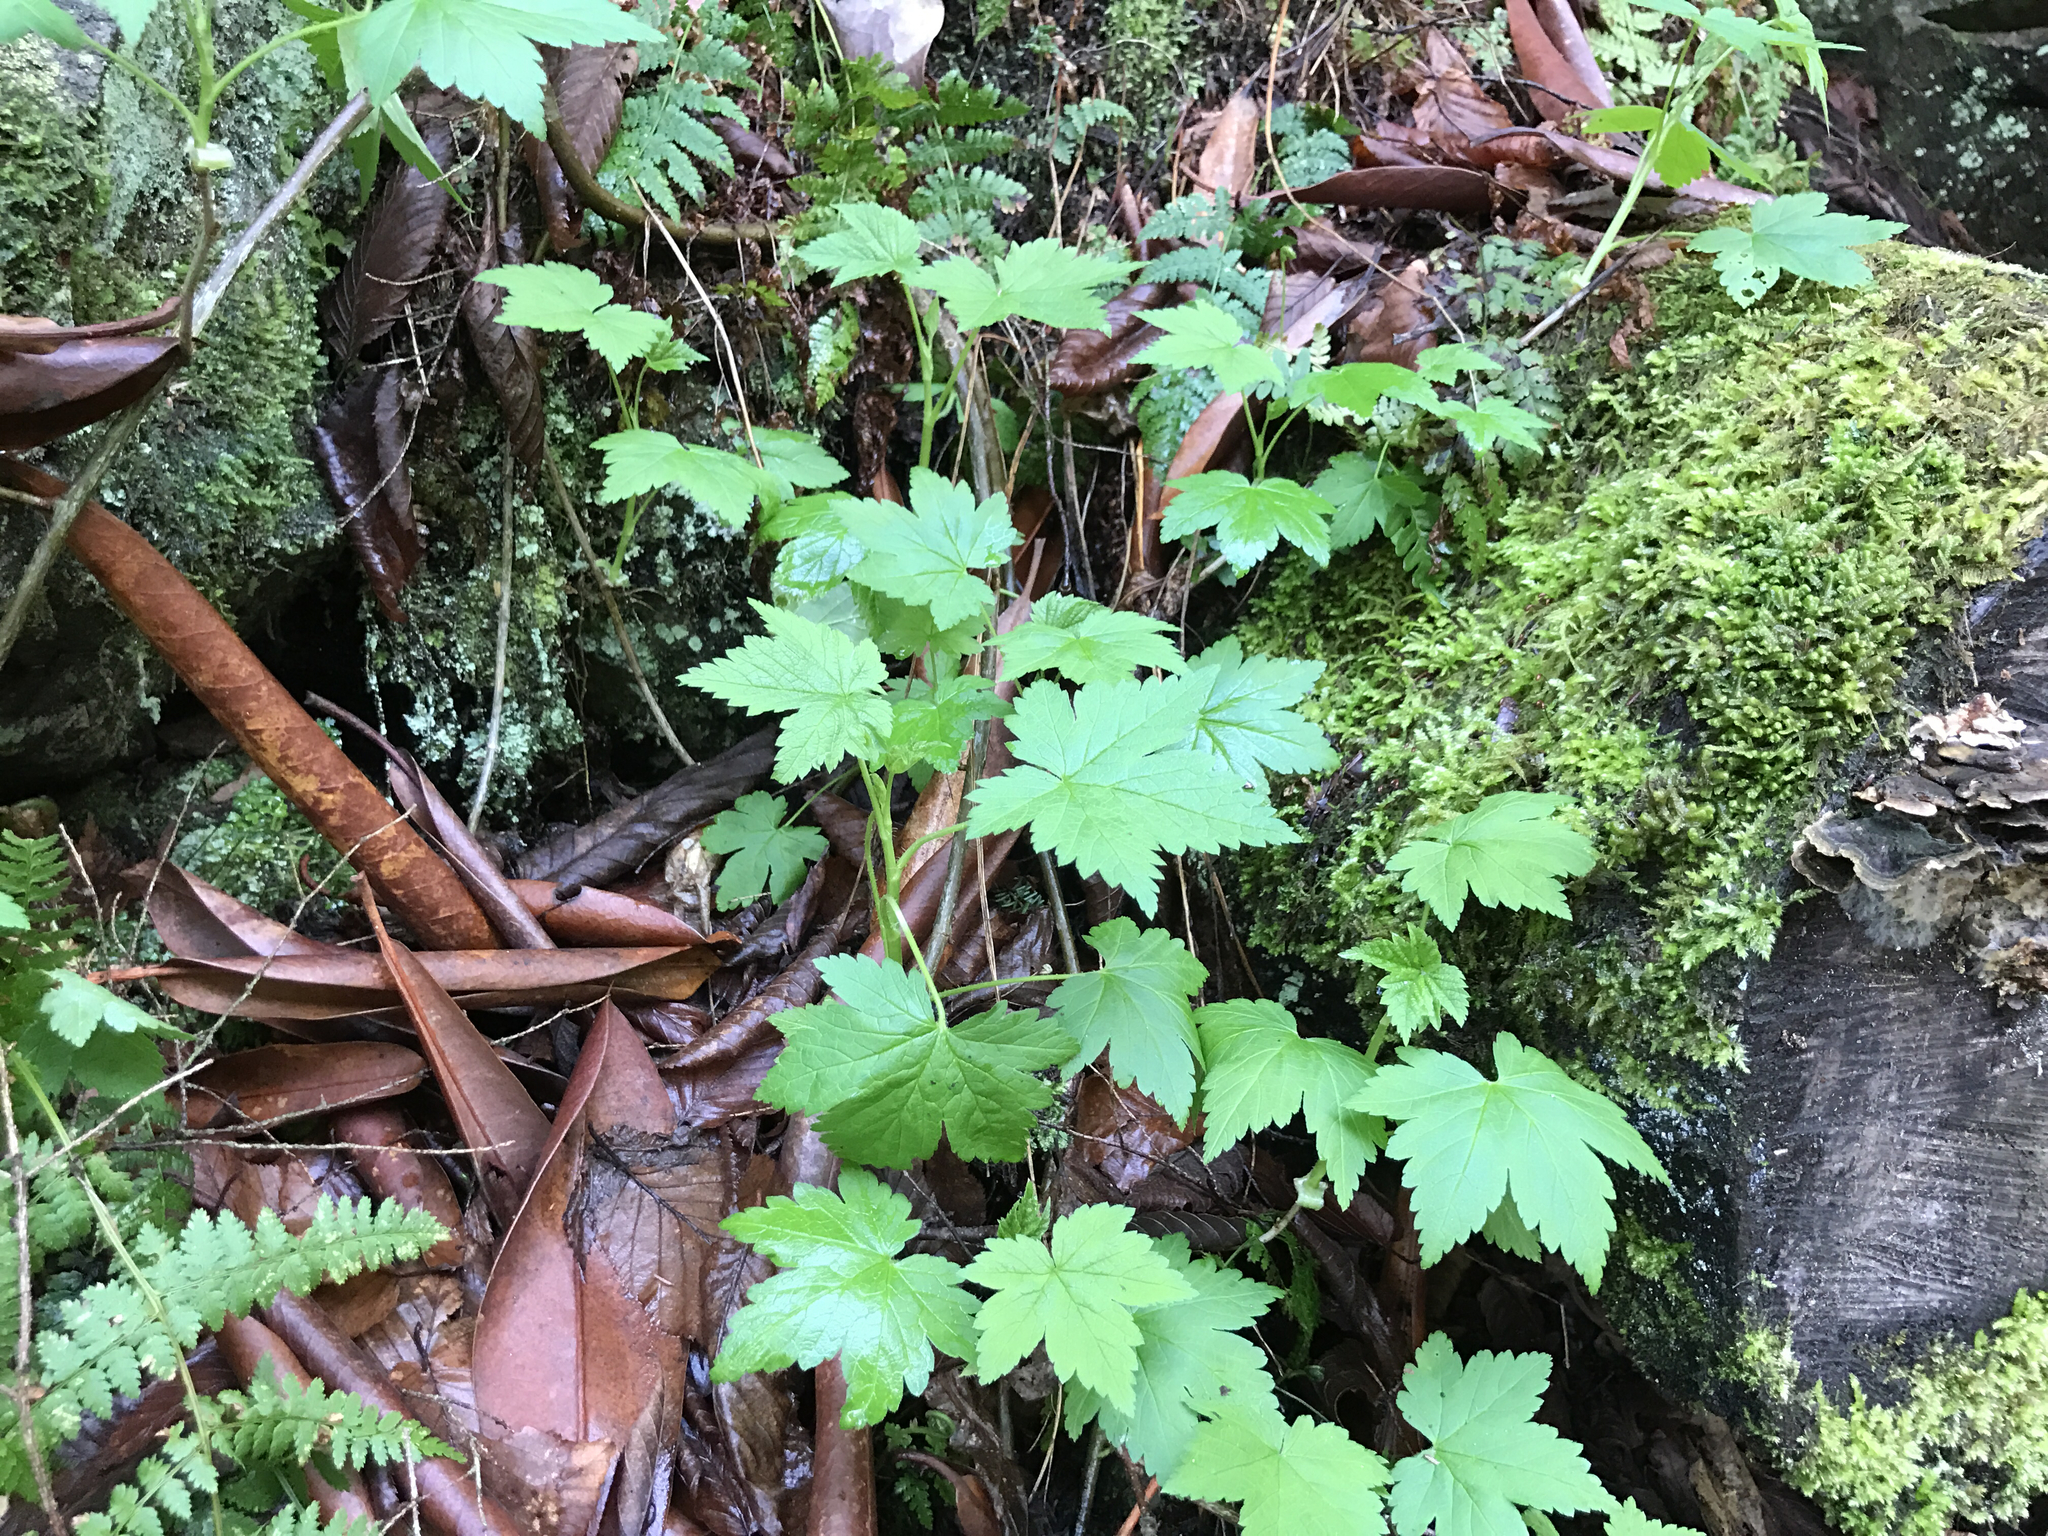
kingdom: Plantae
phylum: Tracheophyta
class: Magnoliopsida
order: Saxifragales
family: Grossulariaceae
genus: Ribes
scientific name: Ribes glandulosum
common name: Skunk currant
